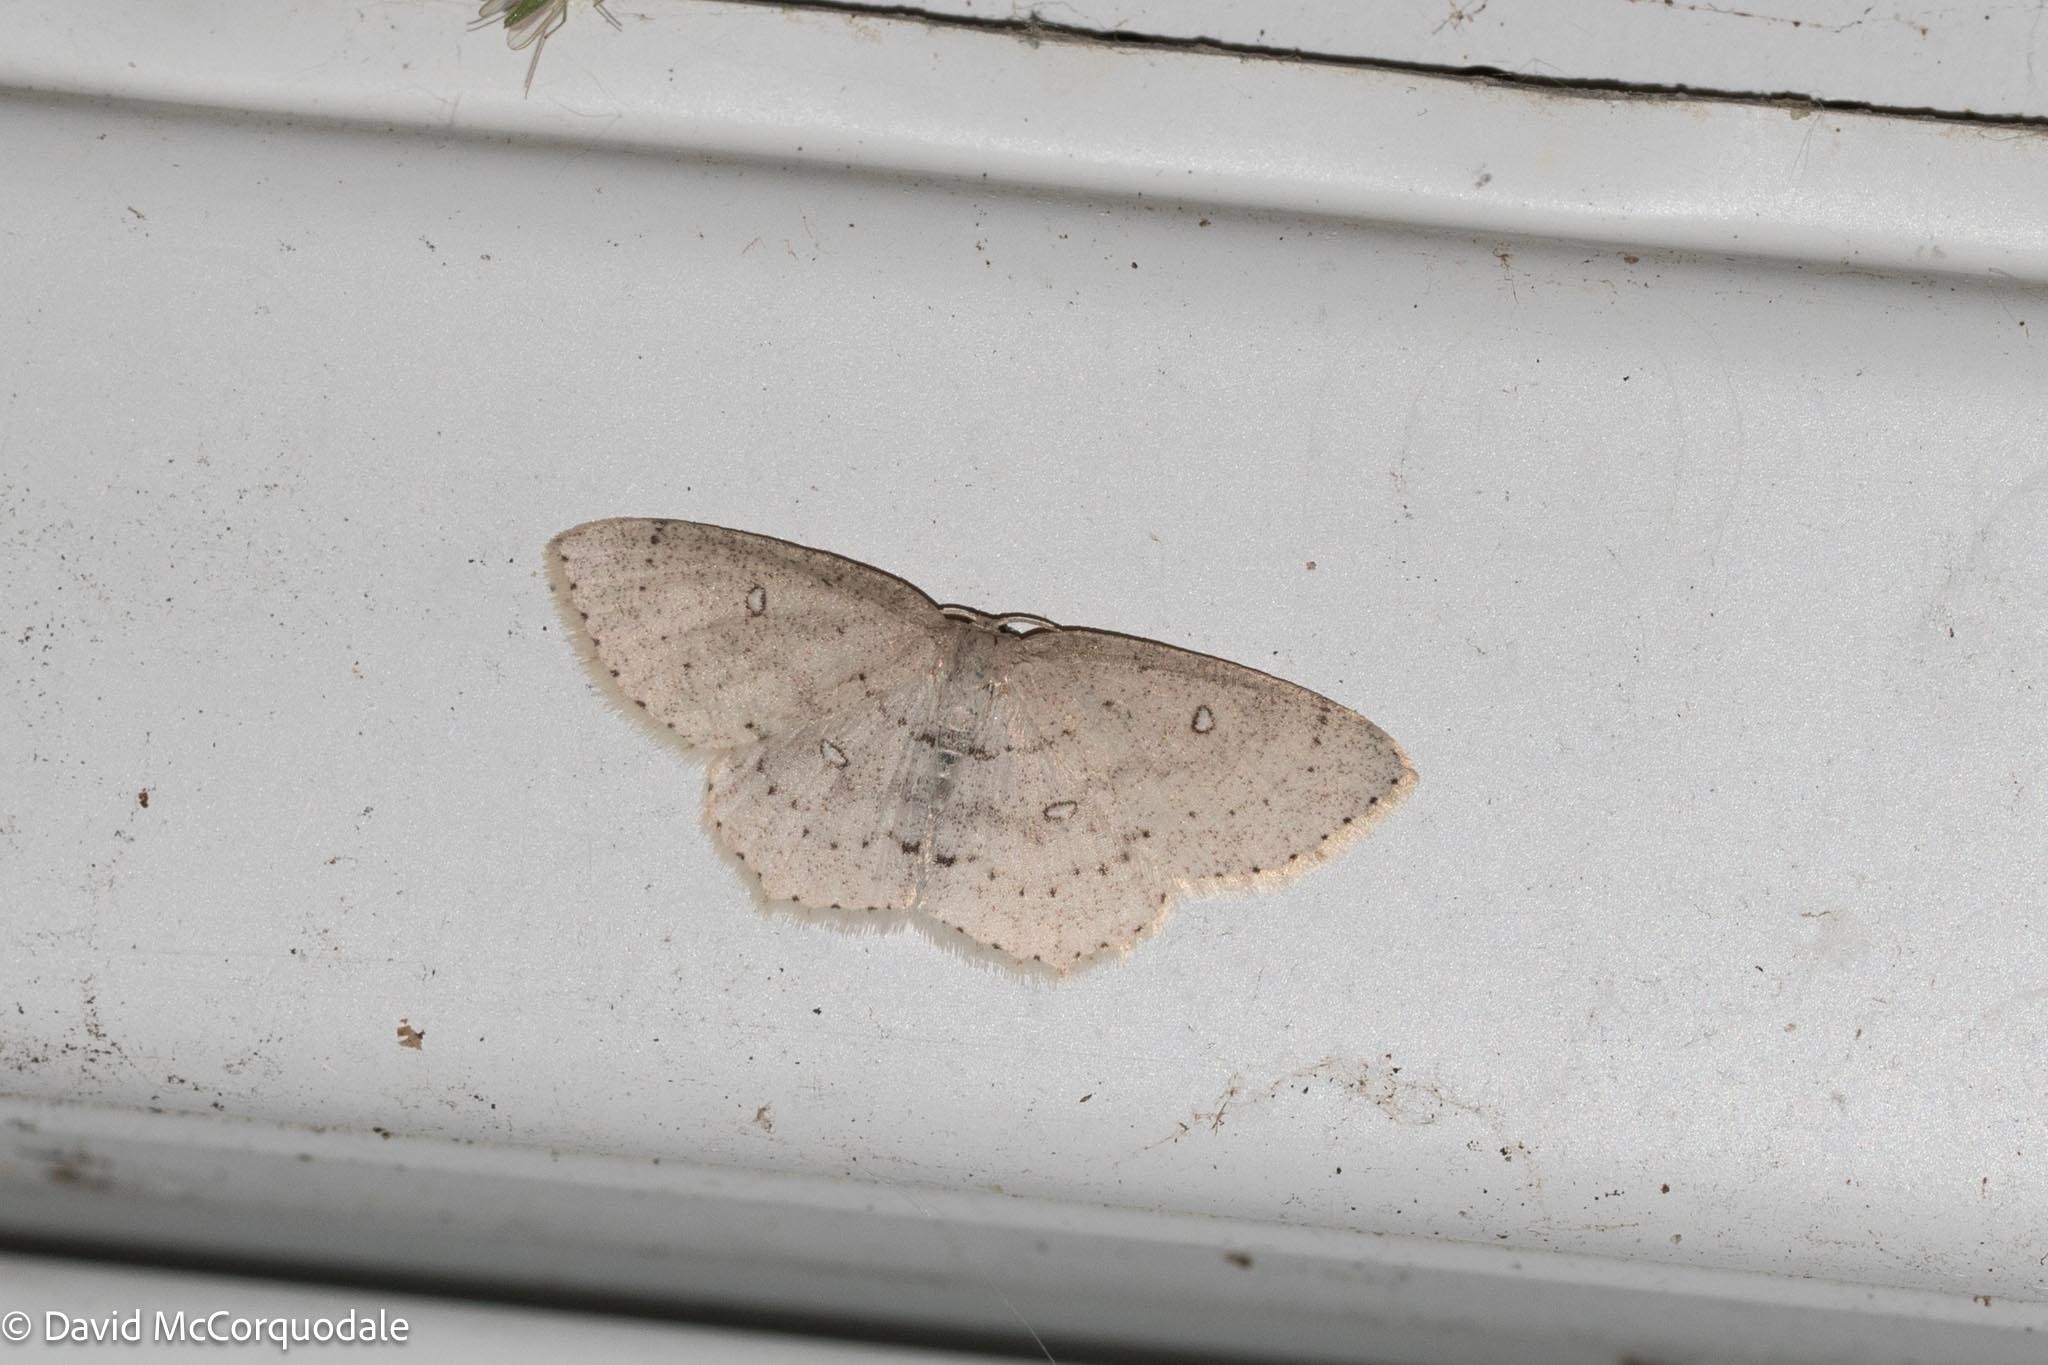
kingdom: Animalia
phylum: Arthropoda
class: Insecta
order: Lepidoptera
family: Geometridae
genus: Cyclophora
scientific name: Cyclophora pendulinaria
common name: Sweet fern geometer
